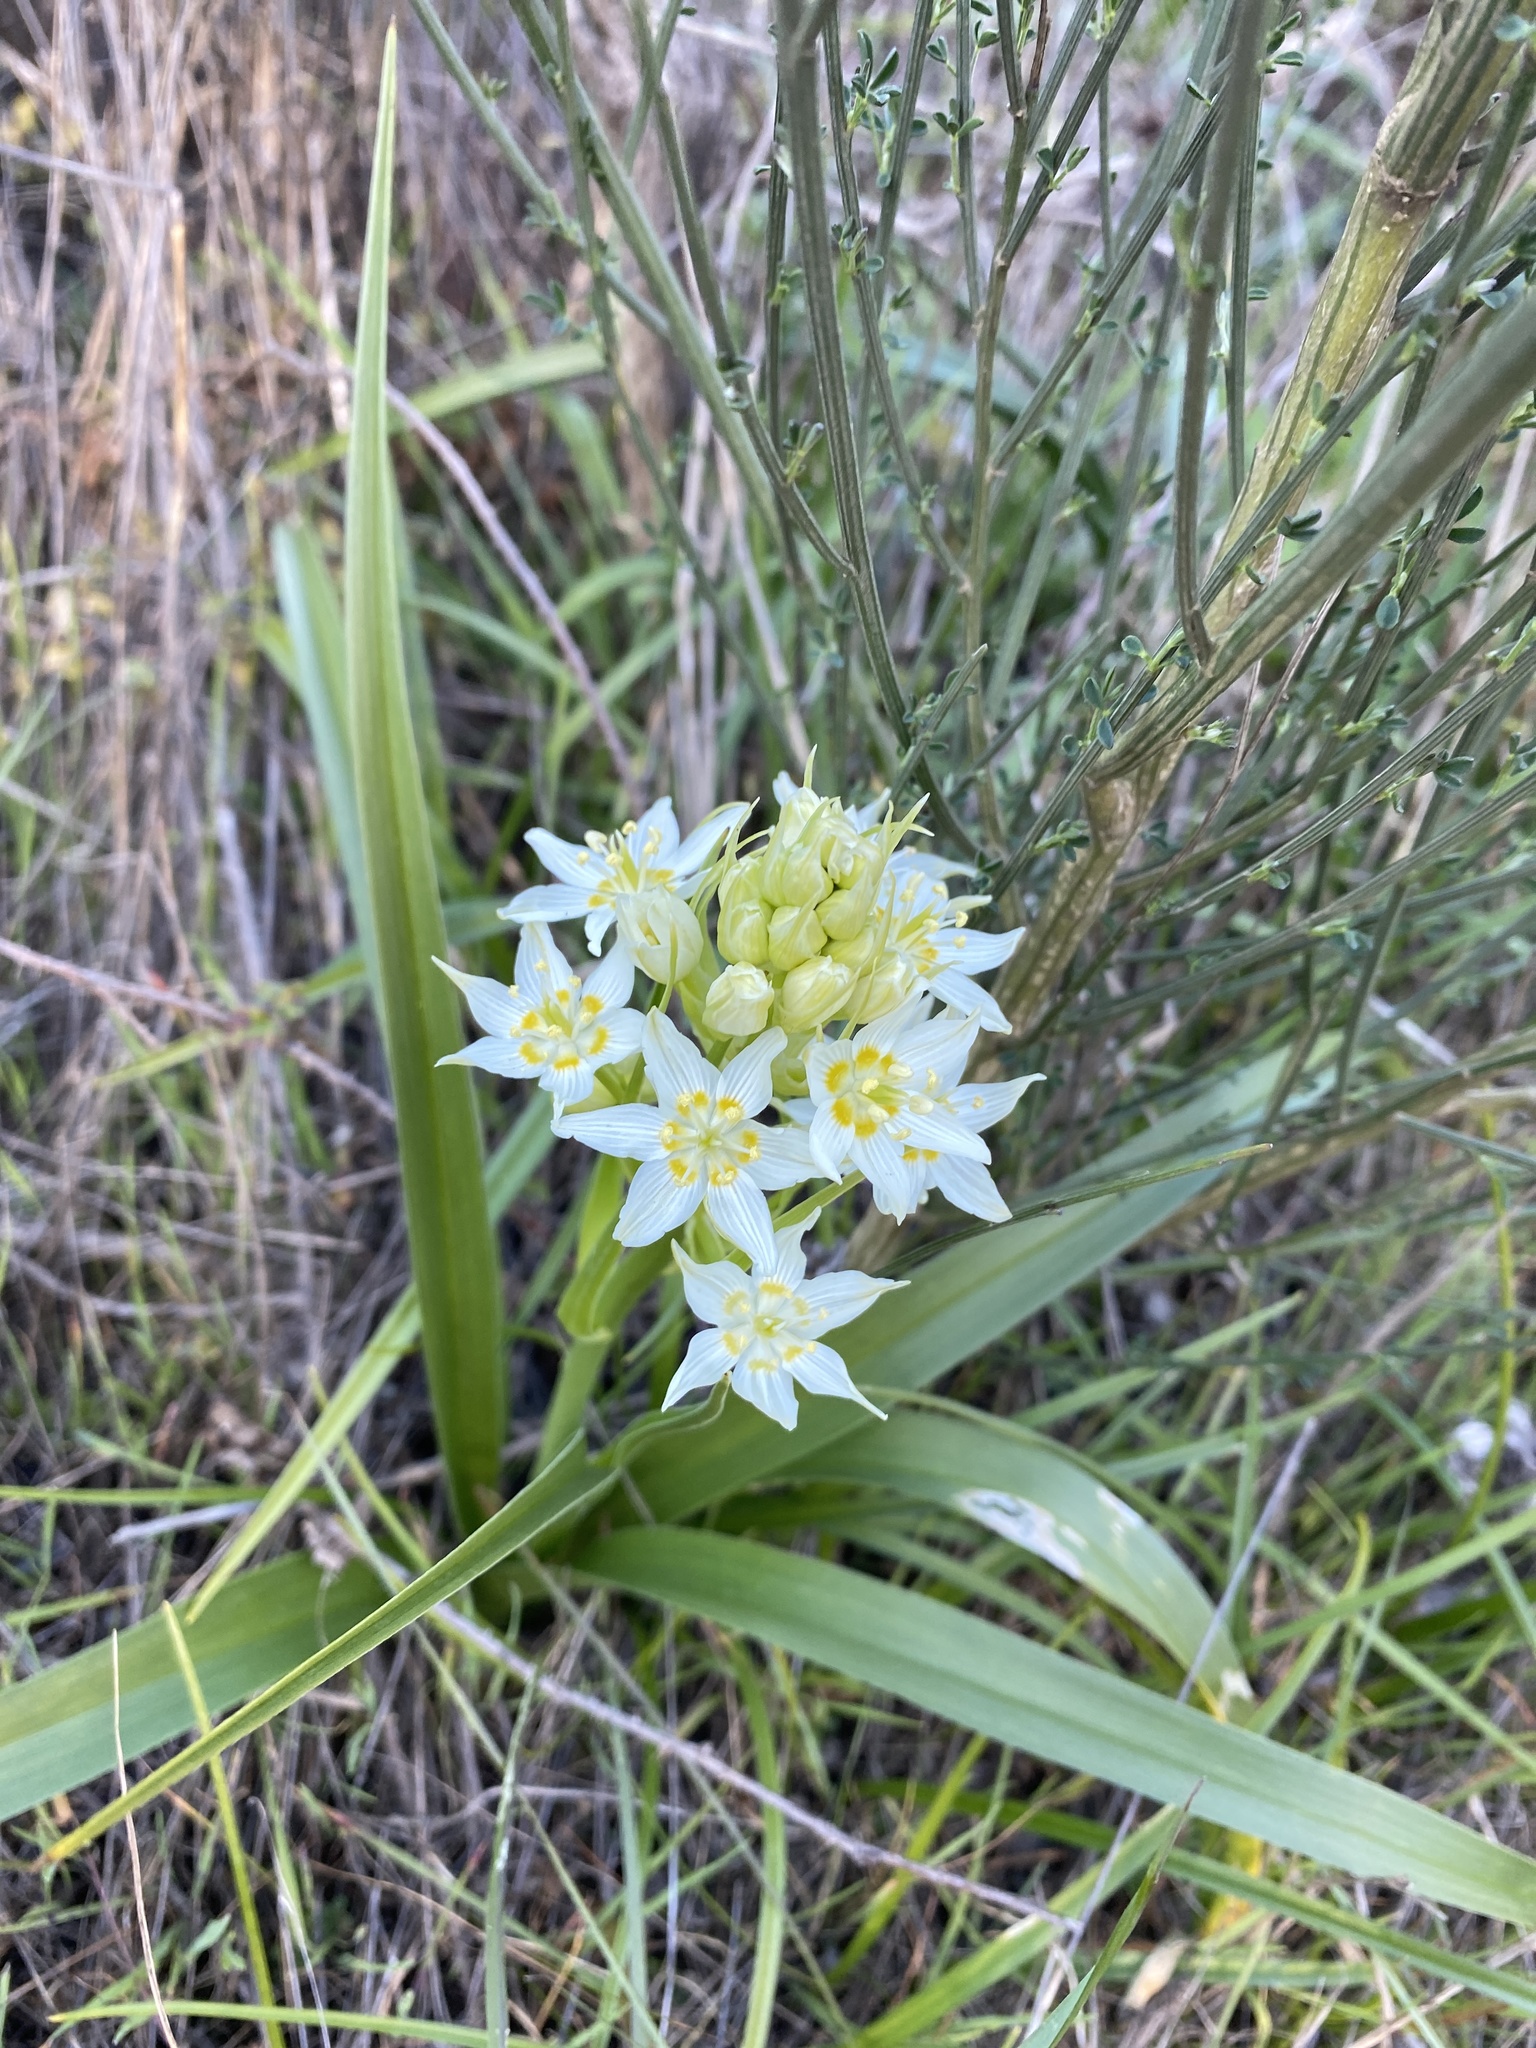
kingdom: Plantae
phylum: Tracheophyta
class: Liliopsida
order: Liliales
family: Melanthiaceae
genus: Toxicoscordion
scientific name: Toxicoscordion fremontii
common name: Fremont's death camas
